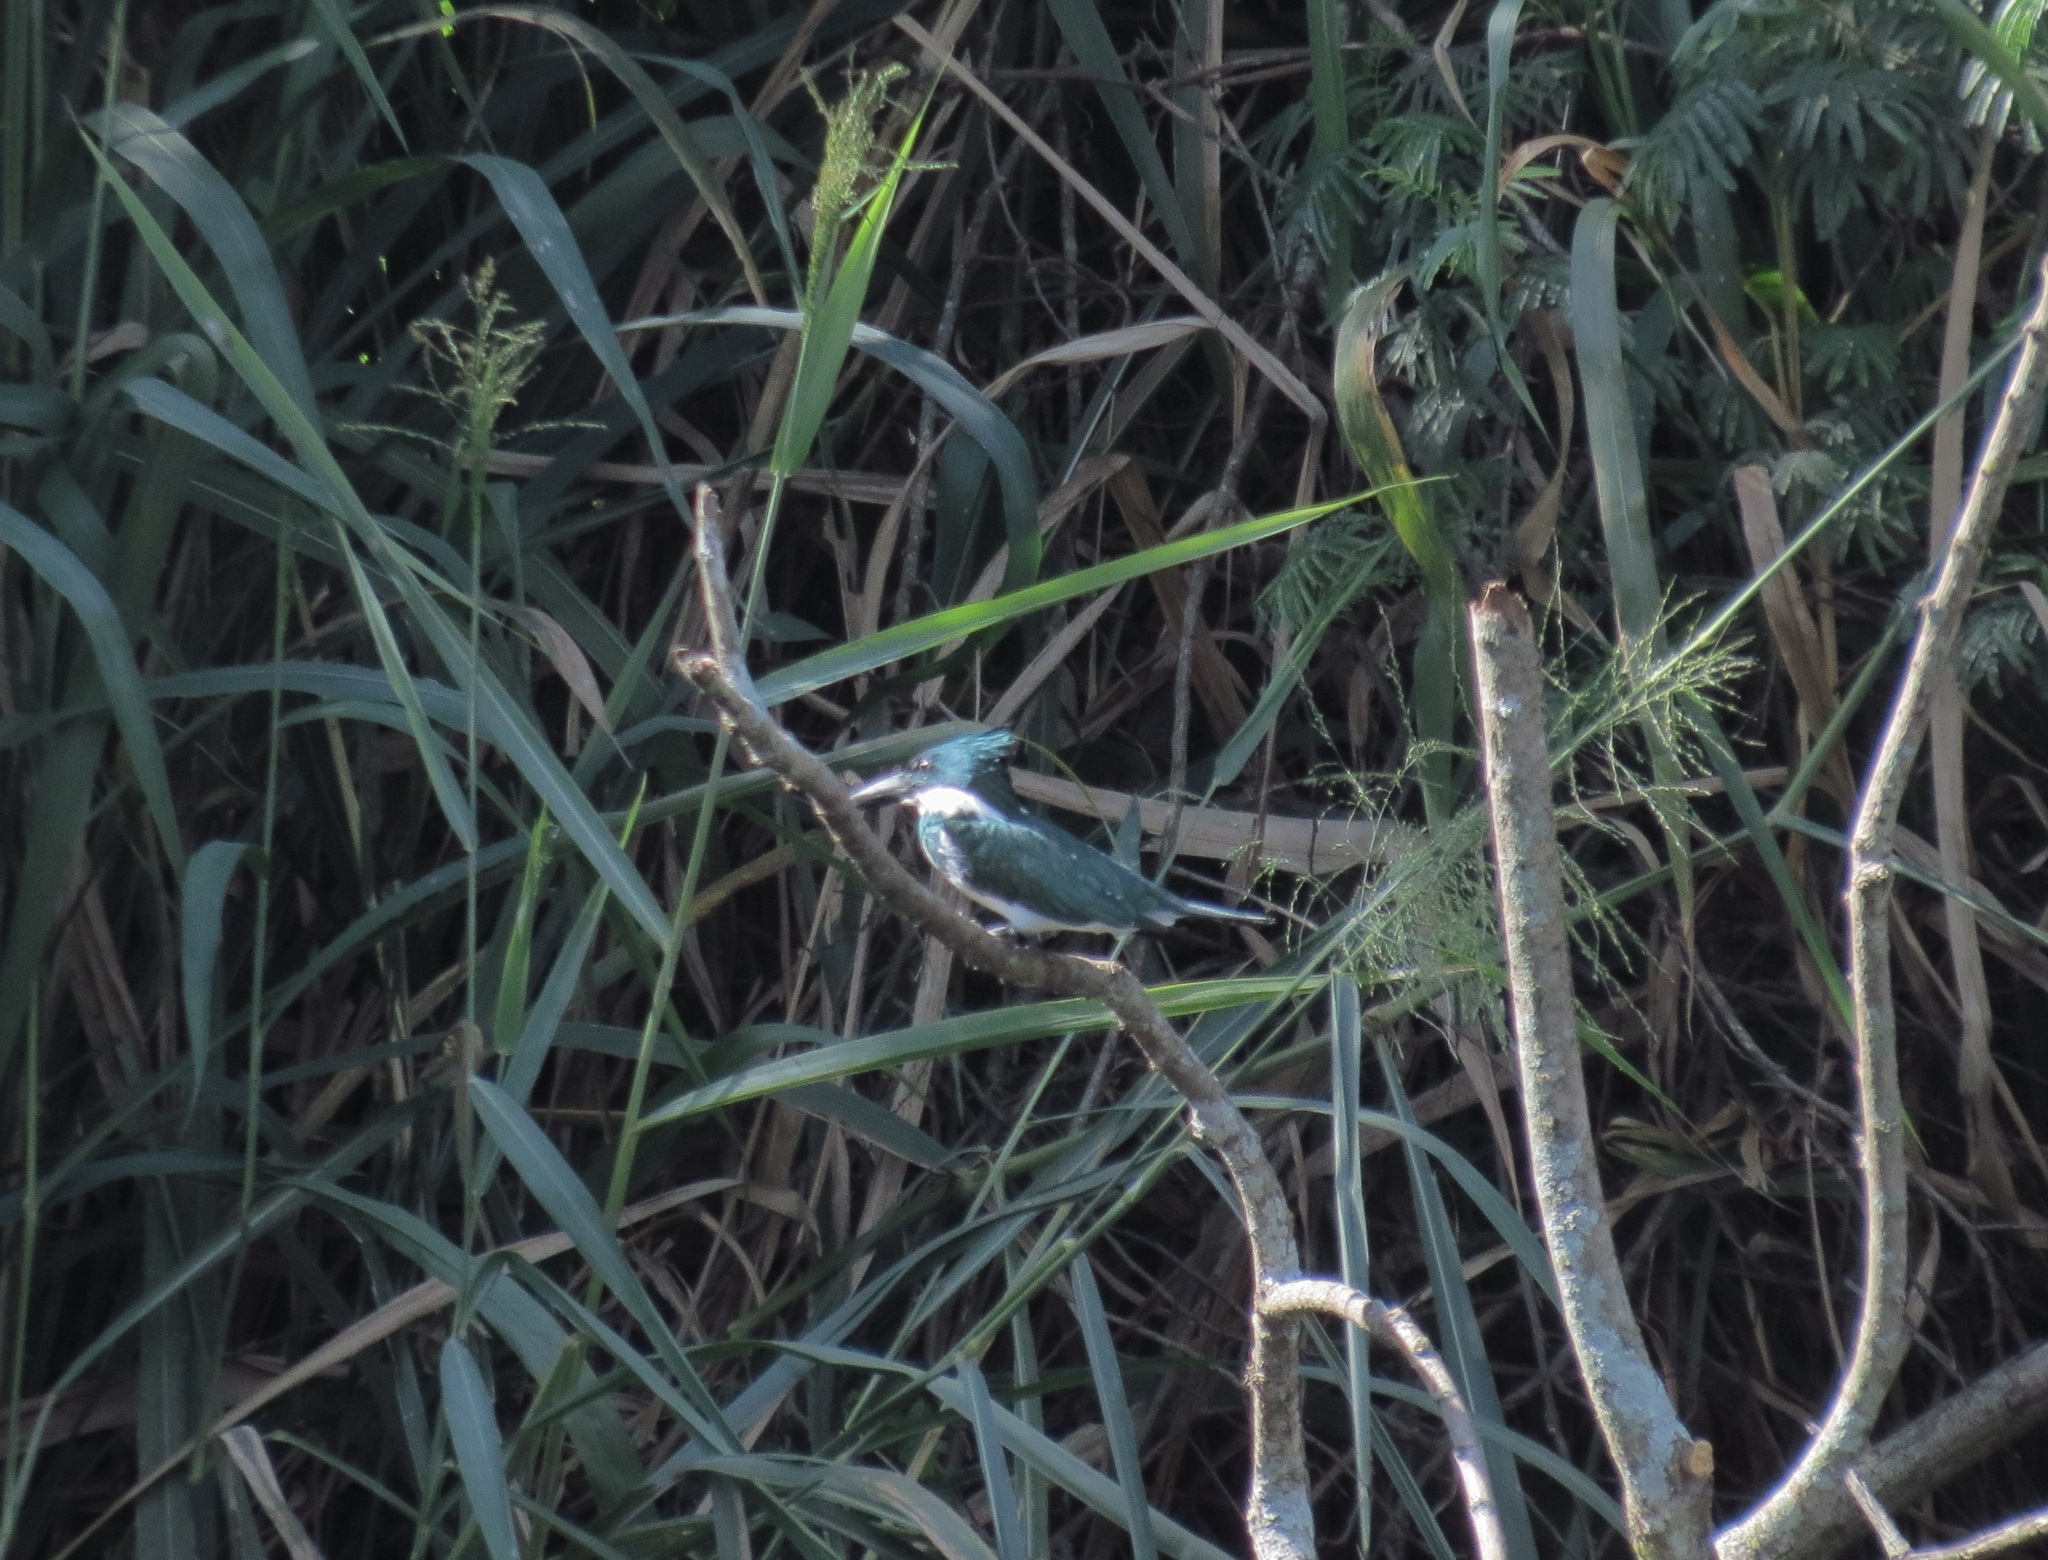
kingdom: Animalia
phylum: Chordata
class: Aves
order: Coraciiformes
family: Alcedinidae
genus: Chloroceryle
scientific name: Chloroceryle amazona
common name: Amazon kingfisher
